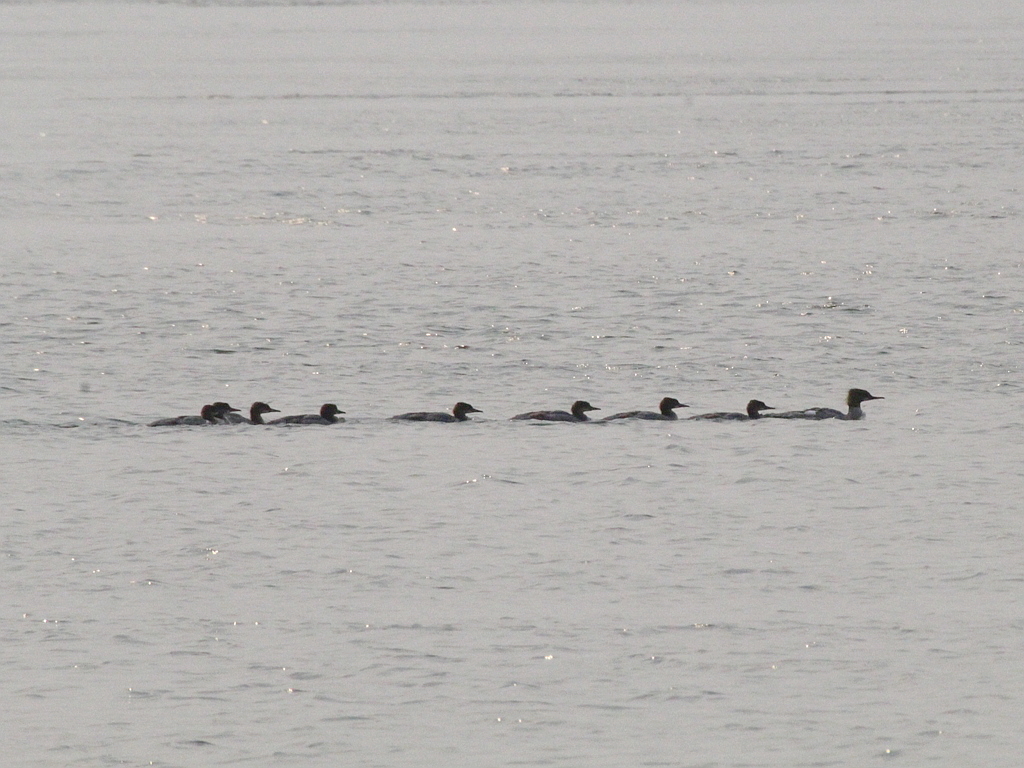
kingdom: Animalia
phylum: Chordata
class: Aves
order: Anseriformes
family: Anatidae
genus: Mergus
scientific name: Mergus merganser
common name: Common merganser
